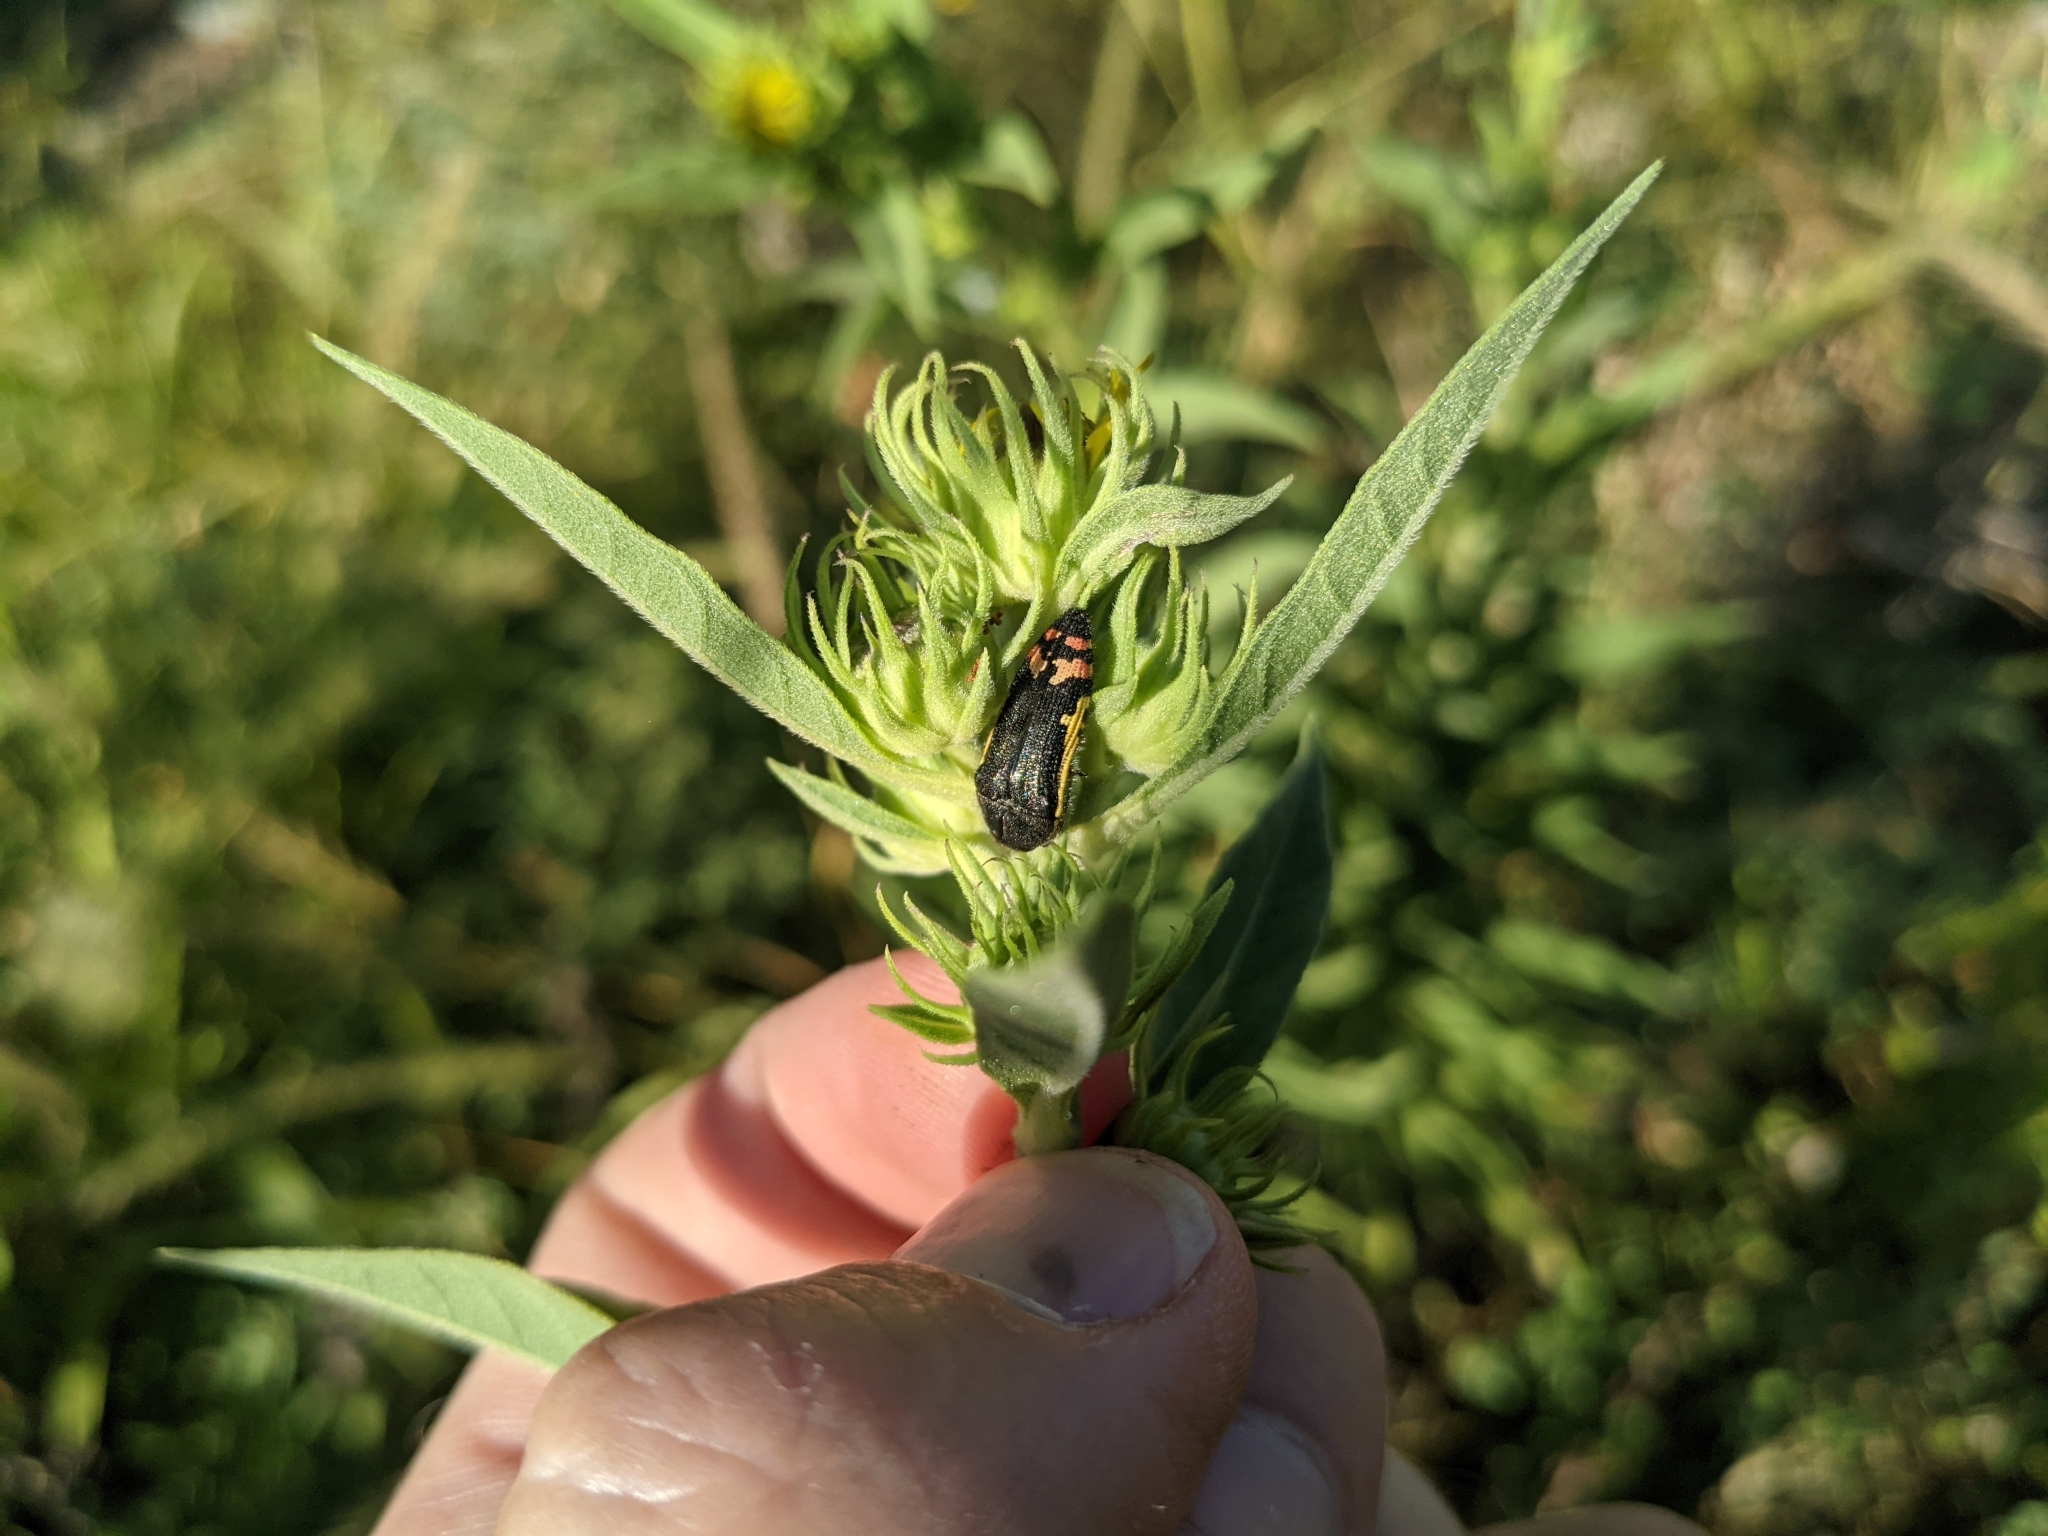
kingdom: Animalia
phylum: Arthropoda
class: Insecta
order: Coleoptera
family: Buprestidae
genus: Acmaeodera
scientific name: Acmaeodera flavomarginata
